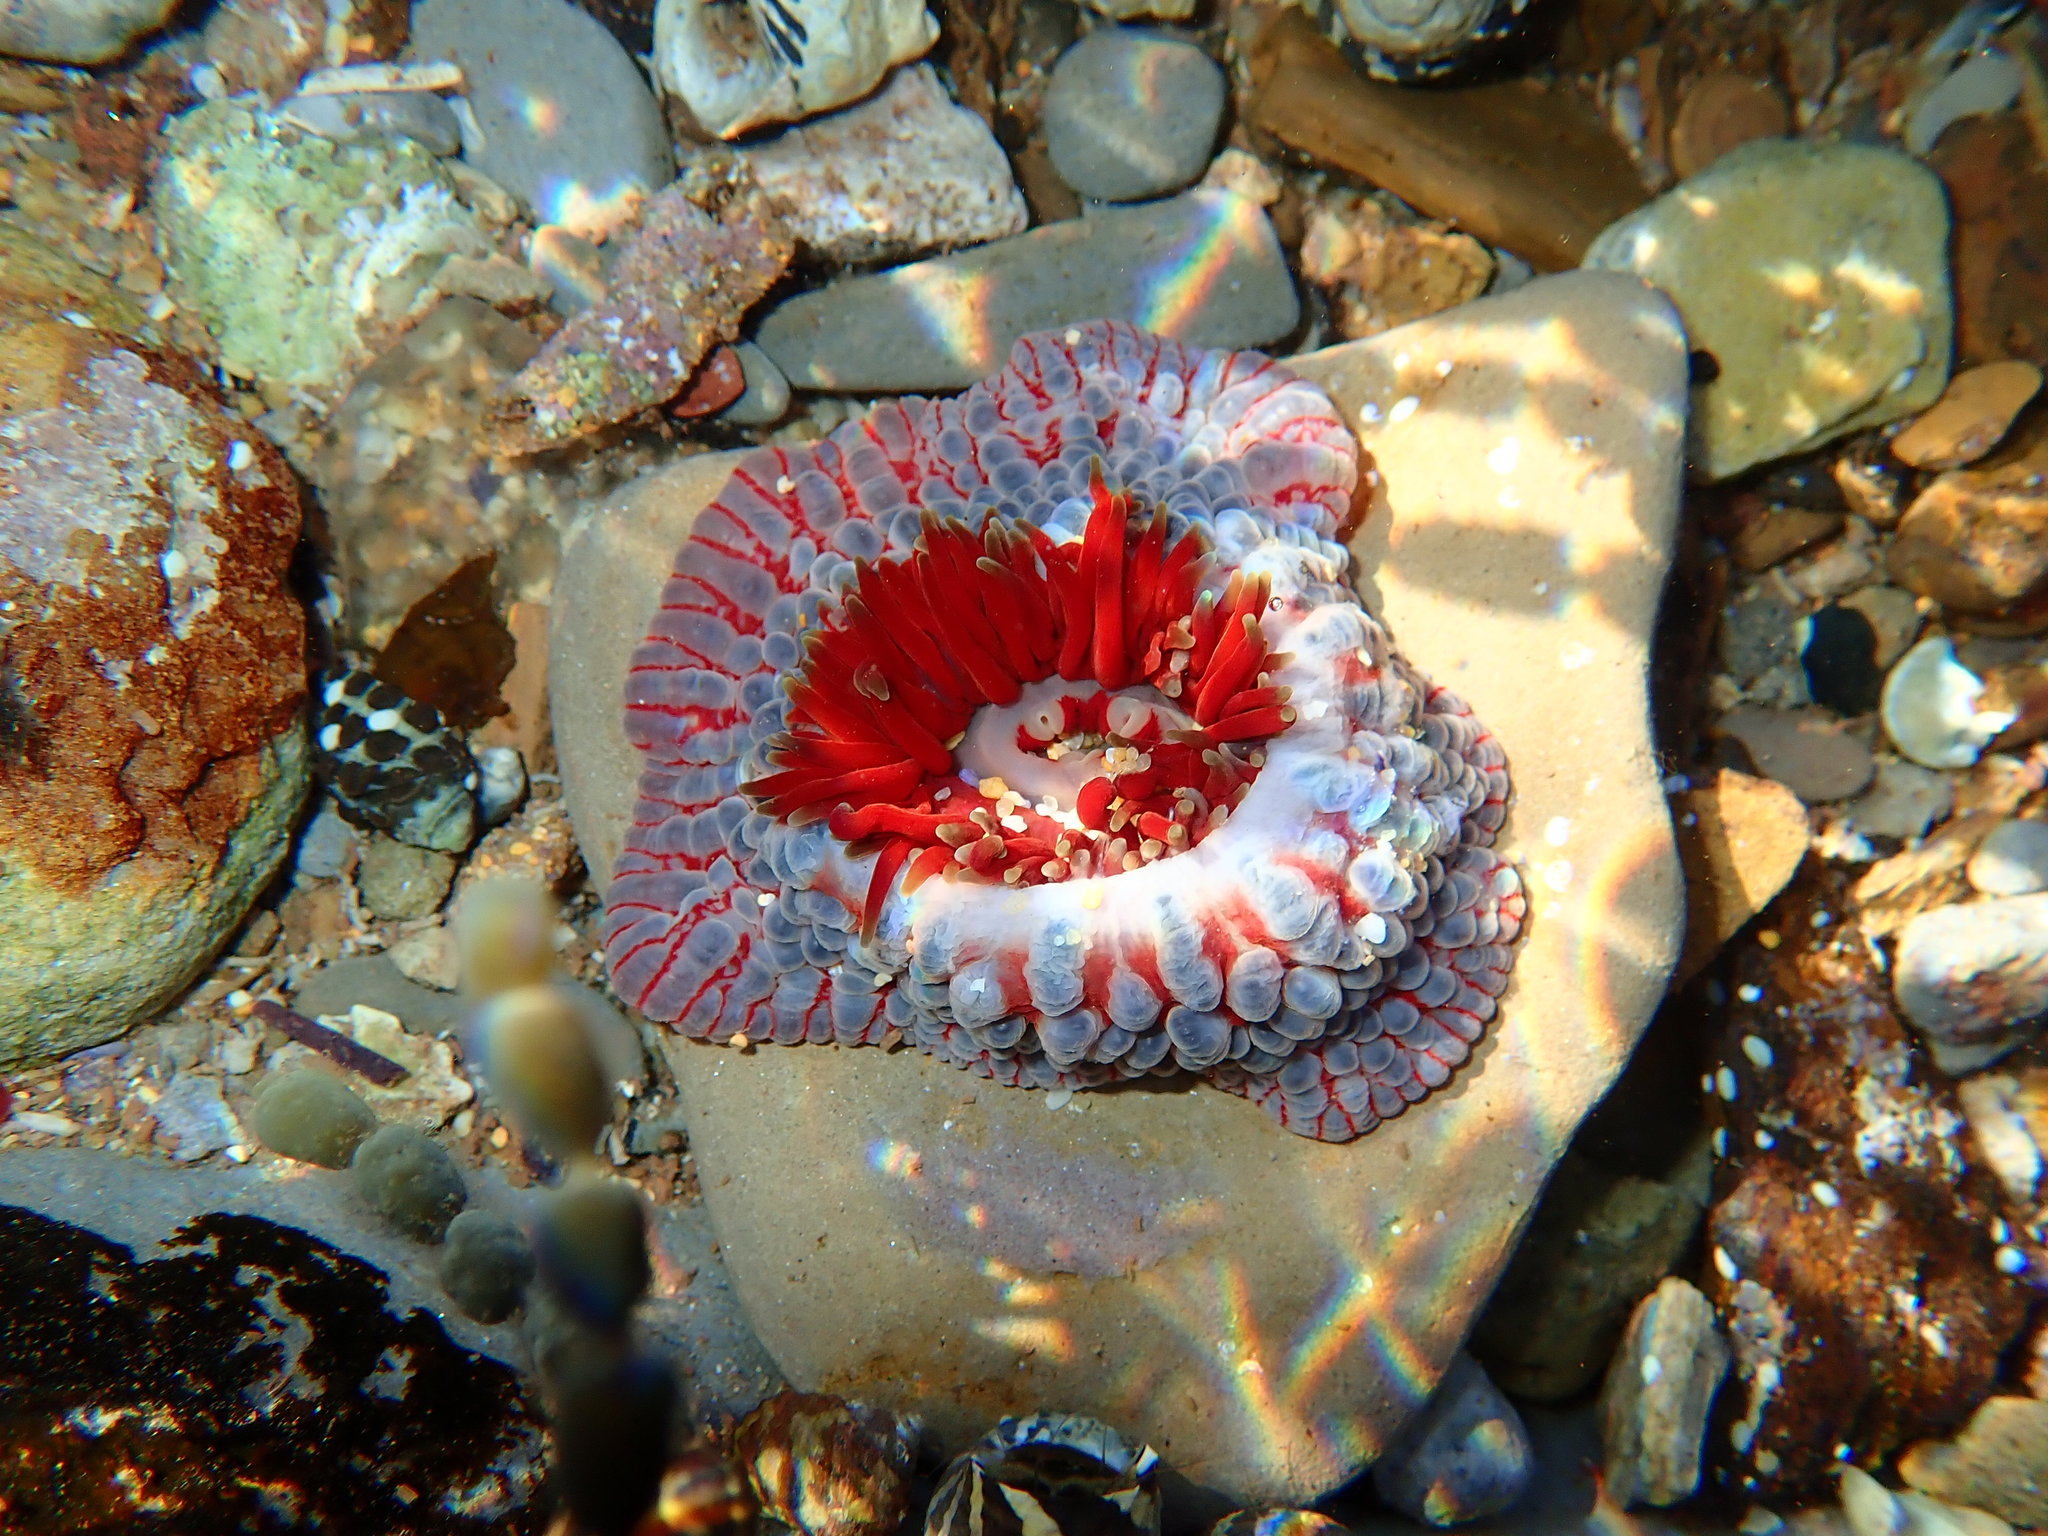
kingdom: Animalia
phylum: Cnidaria
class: Anthozoa
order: Actiniaria
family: Actiniidae
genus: Phlyctenanthus
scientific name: Phlyctenanthus australis
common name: Southern anemone
